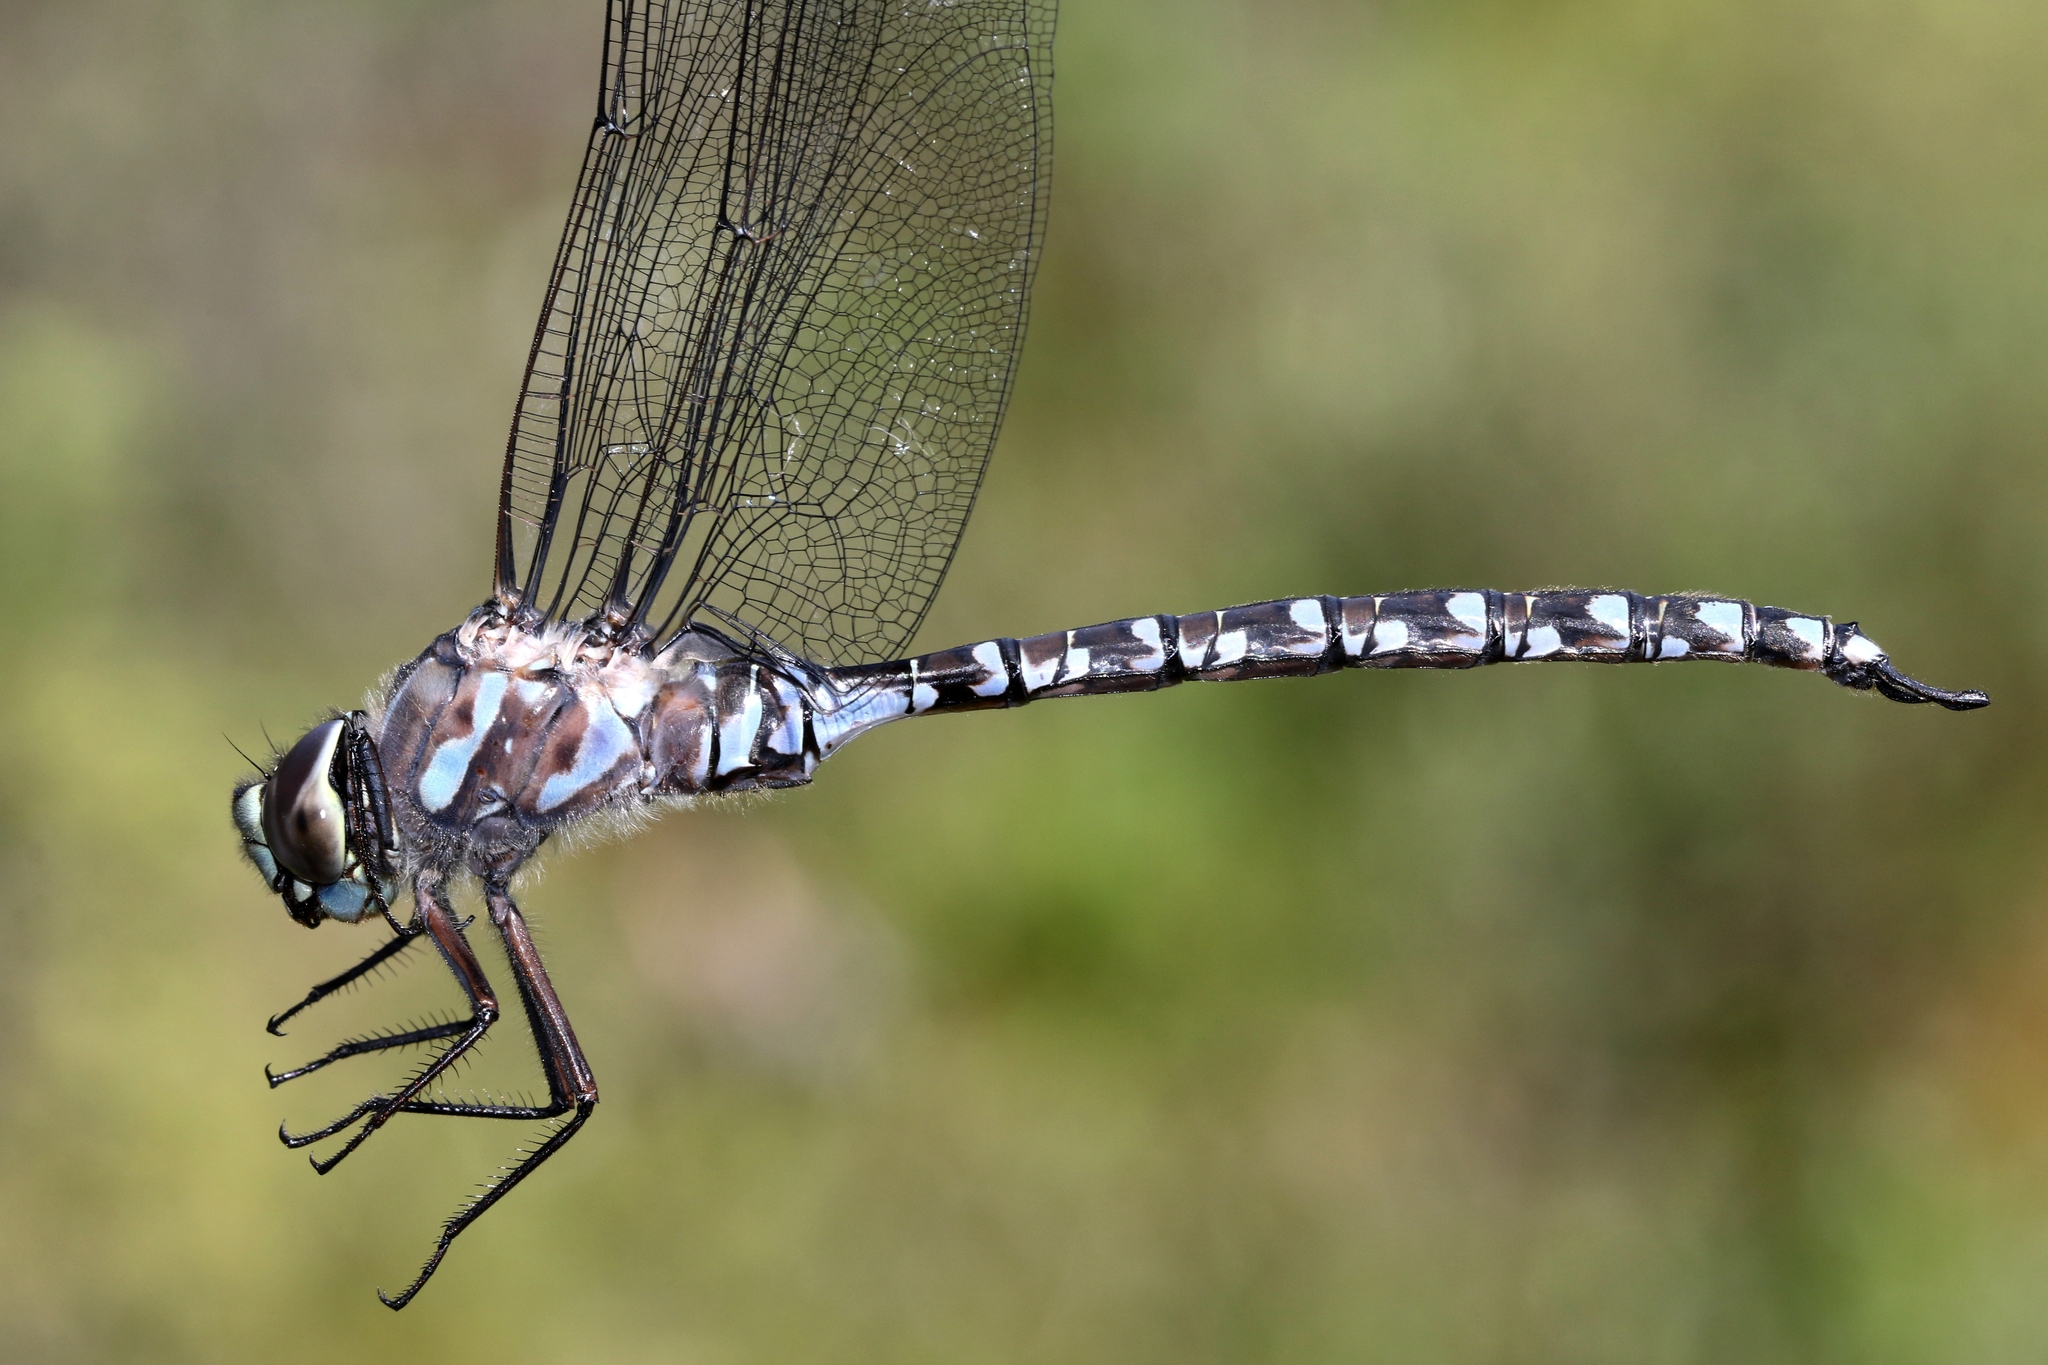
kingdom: Animalia
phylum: Arthropoda
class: Insecta
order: Odonata
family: Aeshnidae
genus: Aeshna
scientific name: Aeshna eremita
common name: Lake darner
